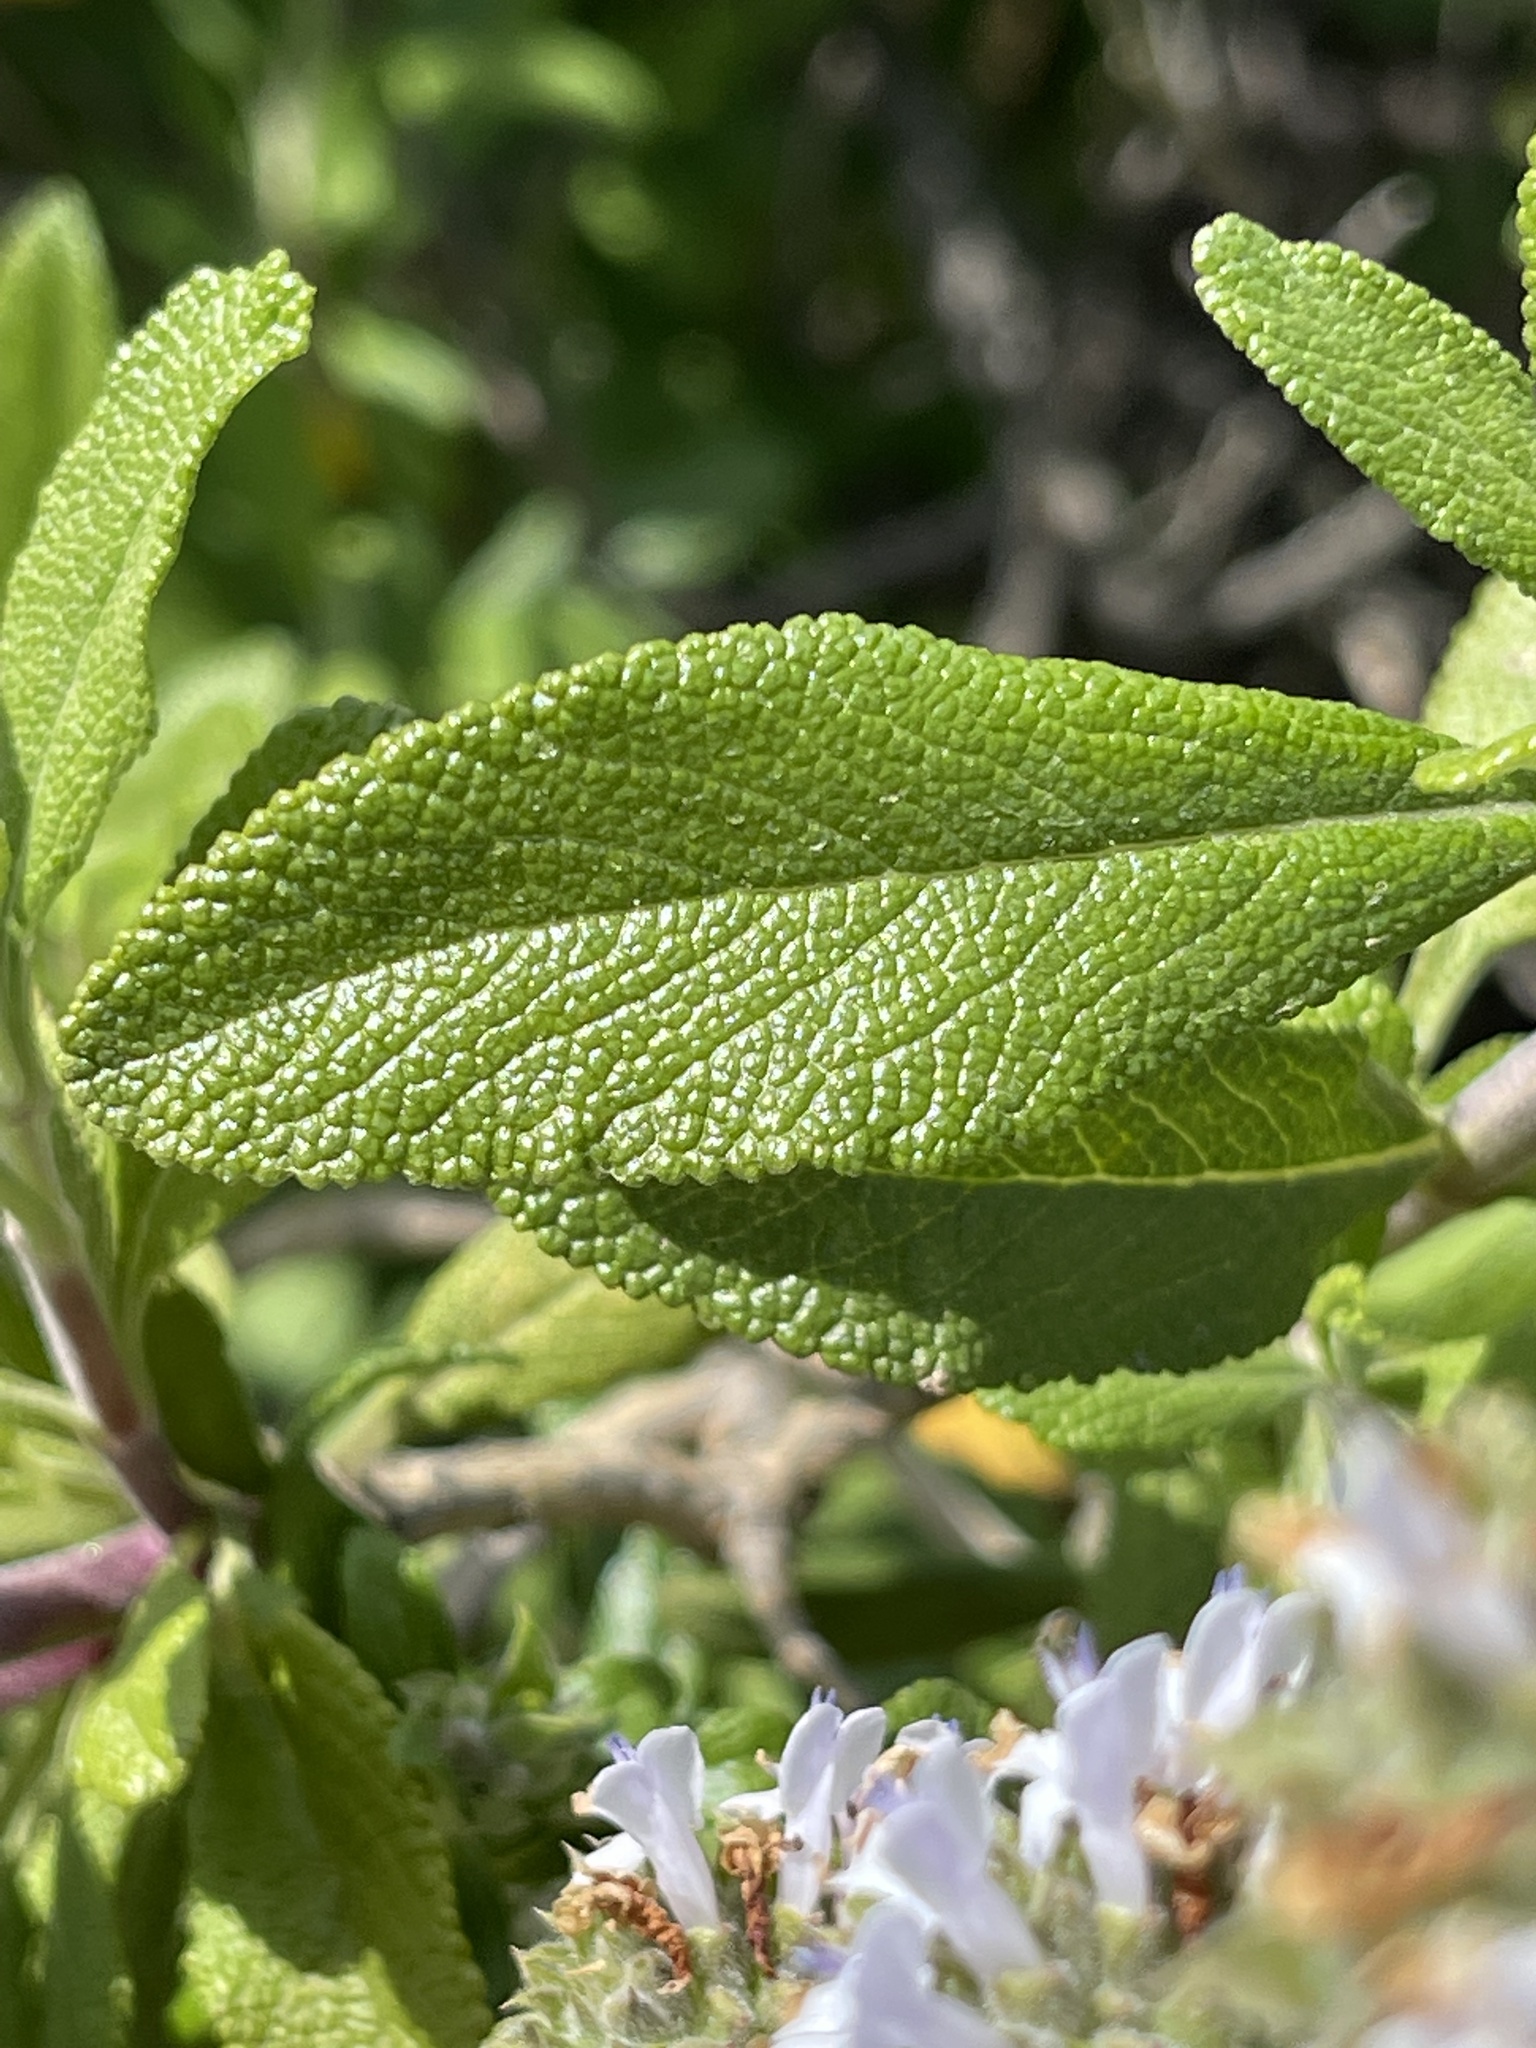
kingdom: Plantae
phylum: Tracheophyta
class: Magnoliopsida
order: Lamiales
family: Lamiaceae
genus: Salvia
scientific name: Salvia mellifera
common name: Black sage
